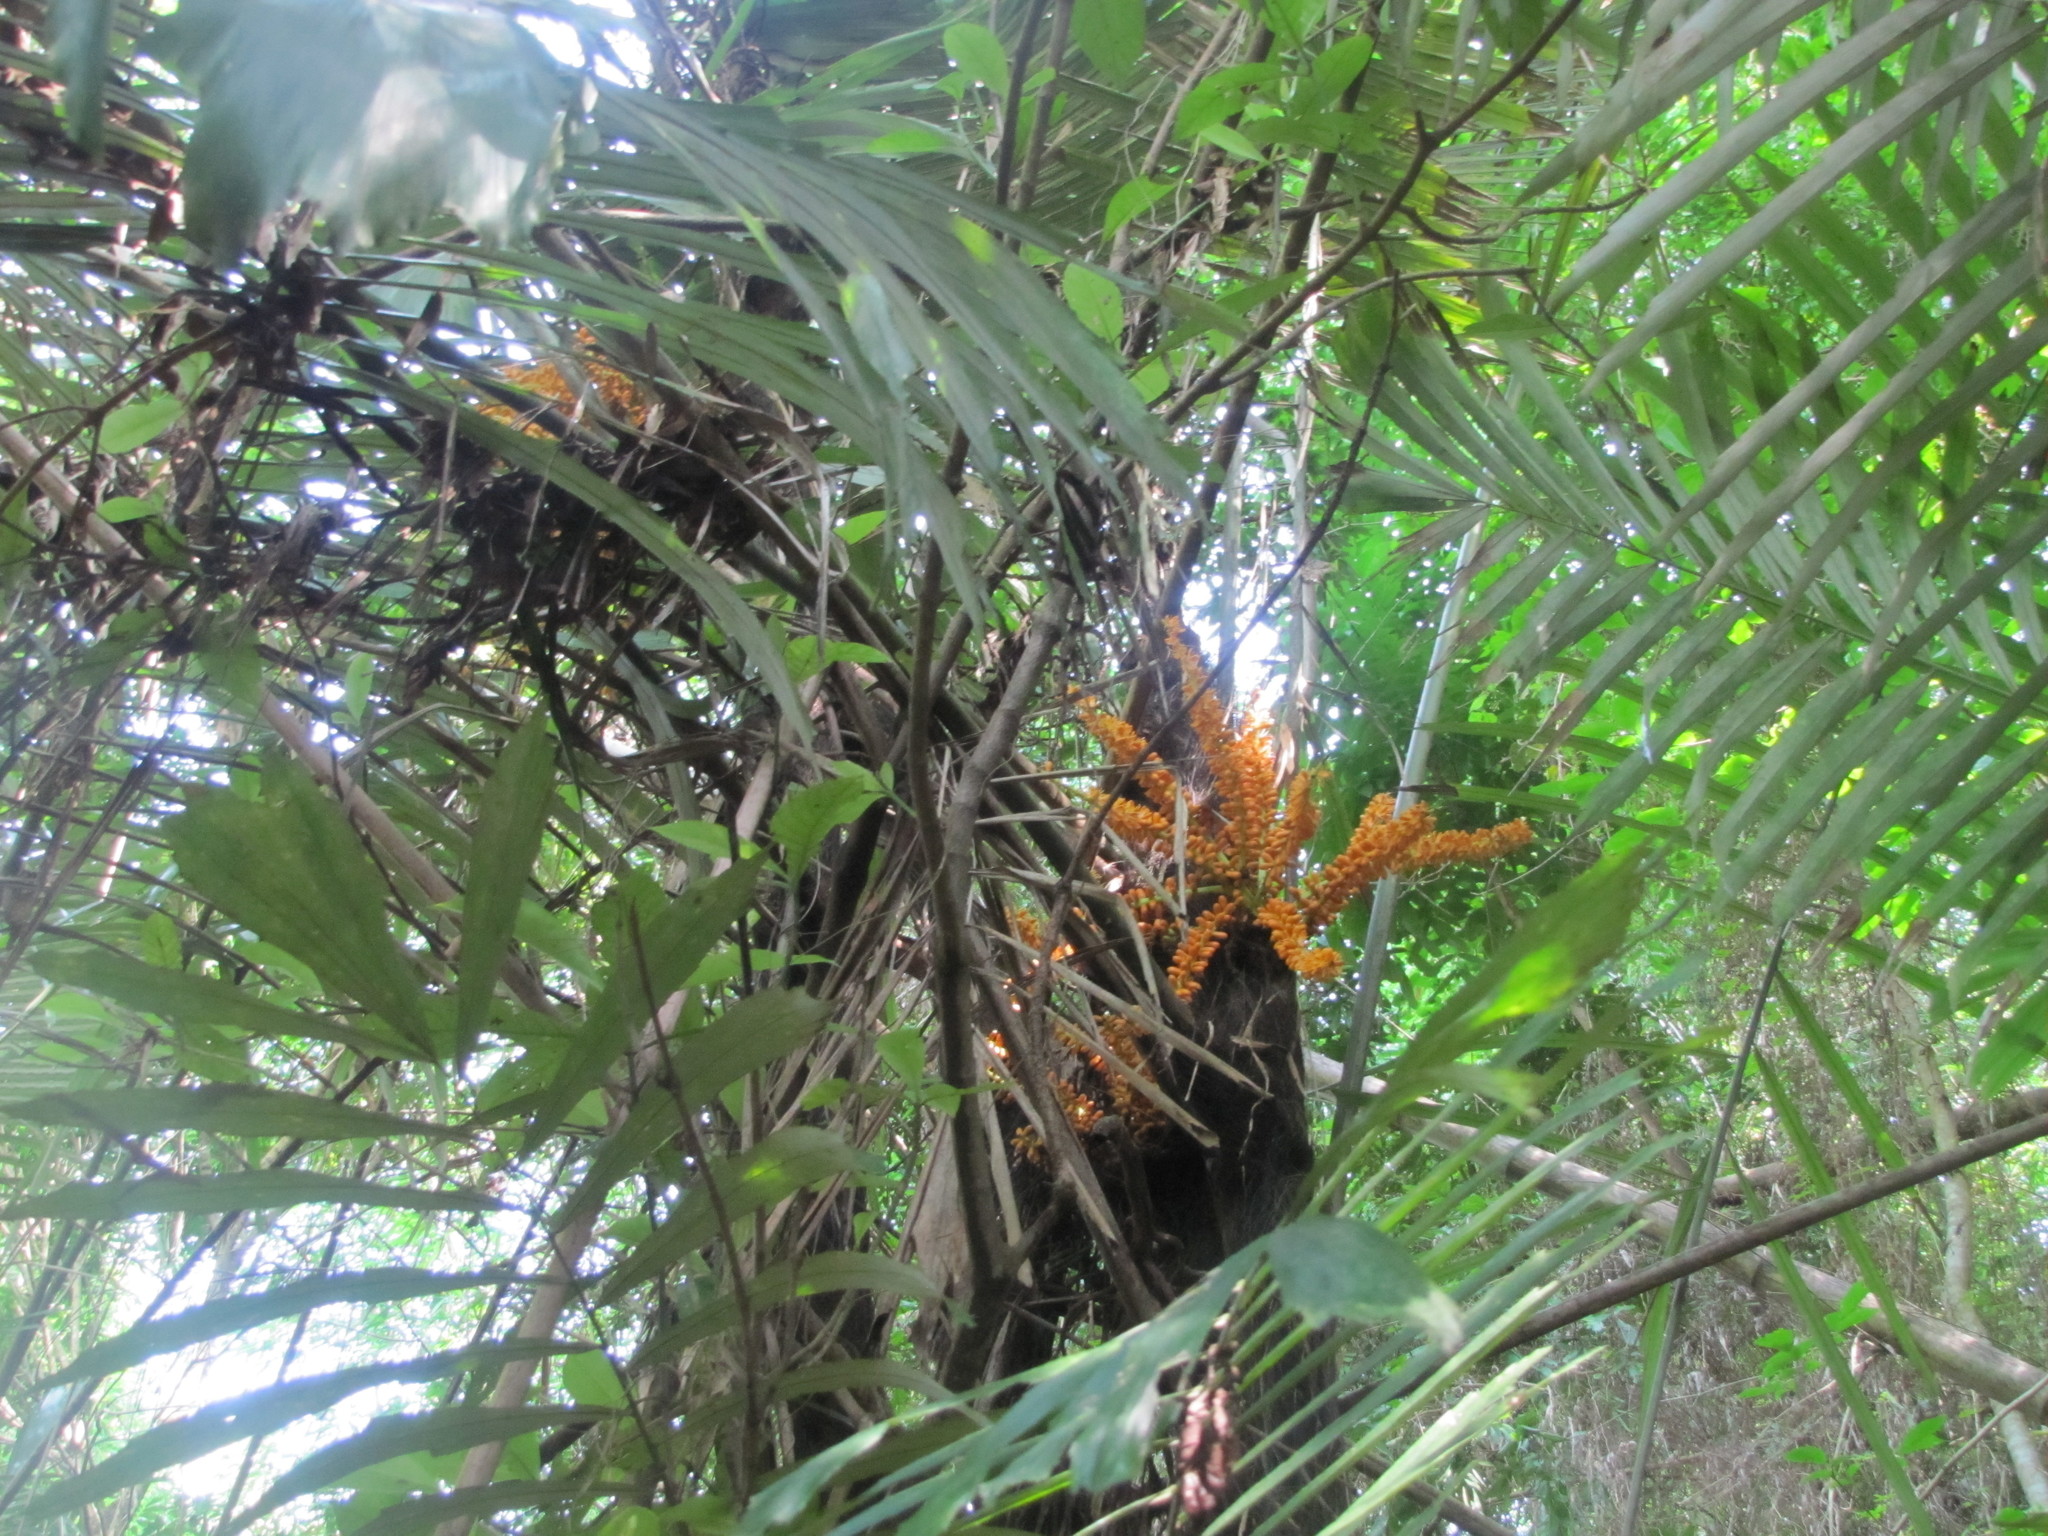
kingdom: Plantae
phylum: Tracheophyta
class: Liliopsida
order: Arecales
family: Arecaceae
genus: Arenga
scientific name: Arenga engleri
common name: Formosan sugar palm
